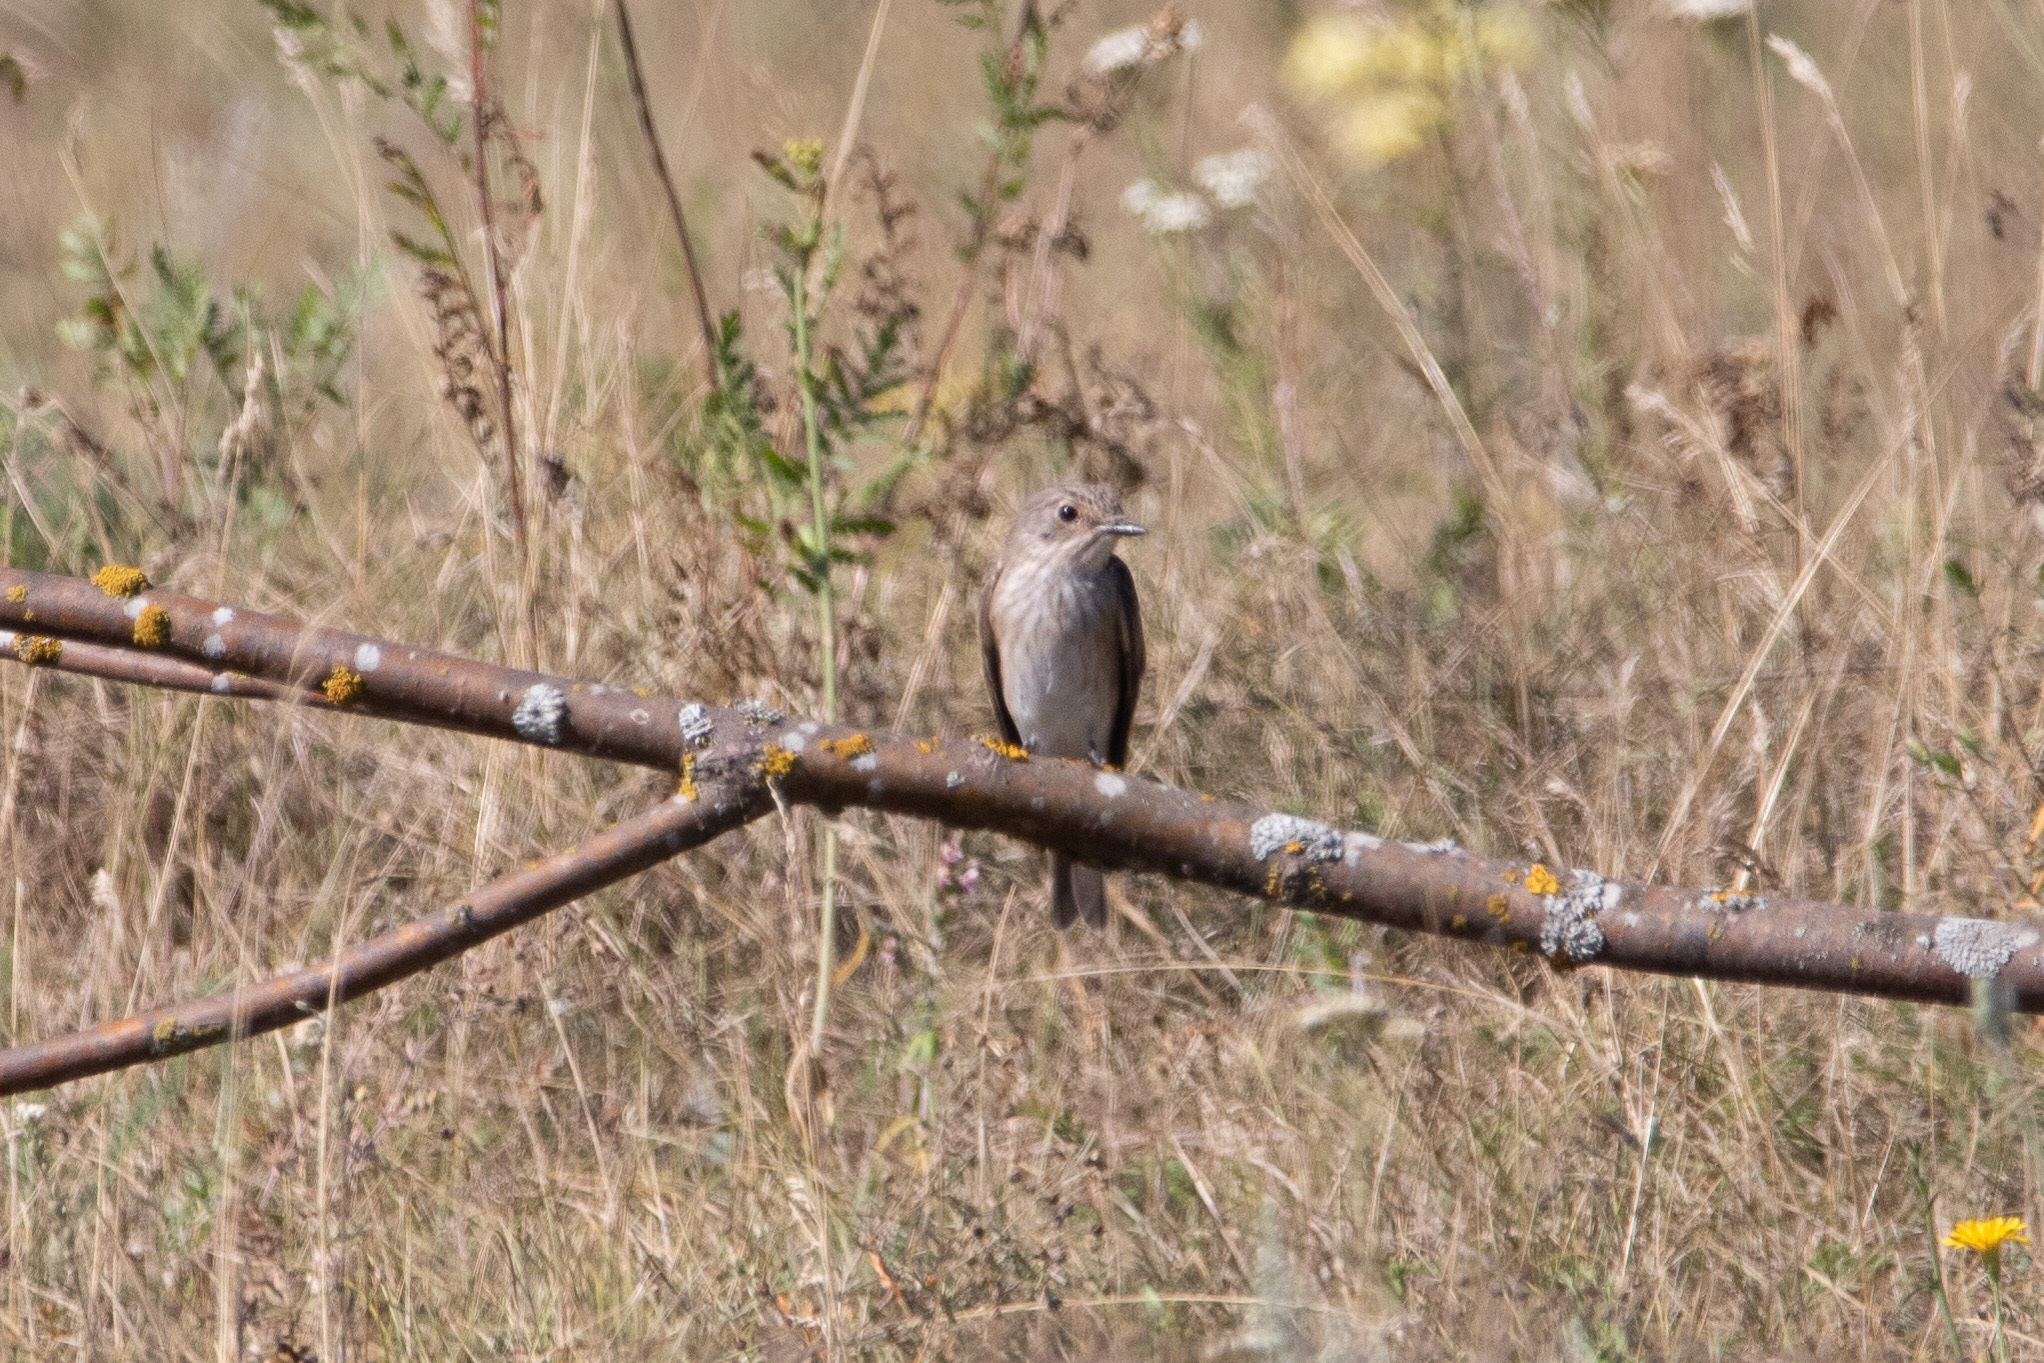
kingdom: Animalia
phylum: Chordata
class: Aves
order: Passeriformes
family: Muscicapidae
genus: Muscicapa
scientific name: Muscicapa striata
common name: Spotted flycatcher
